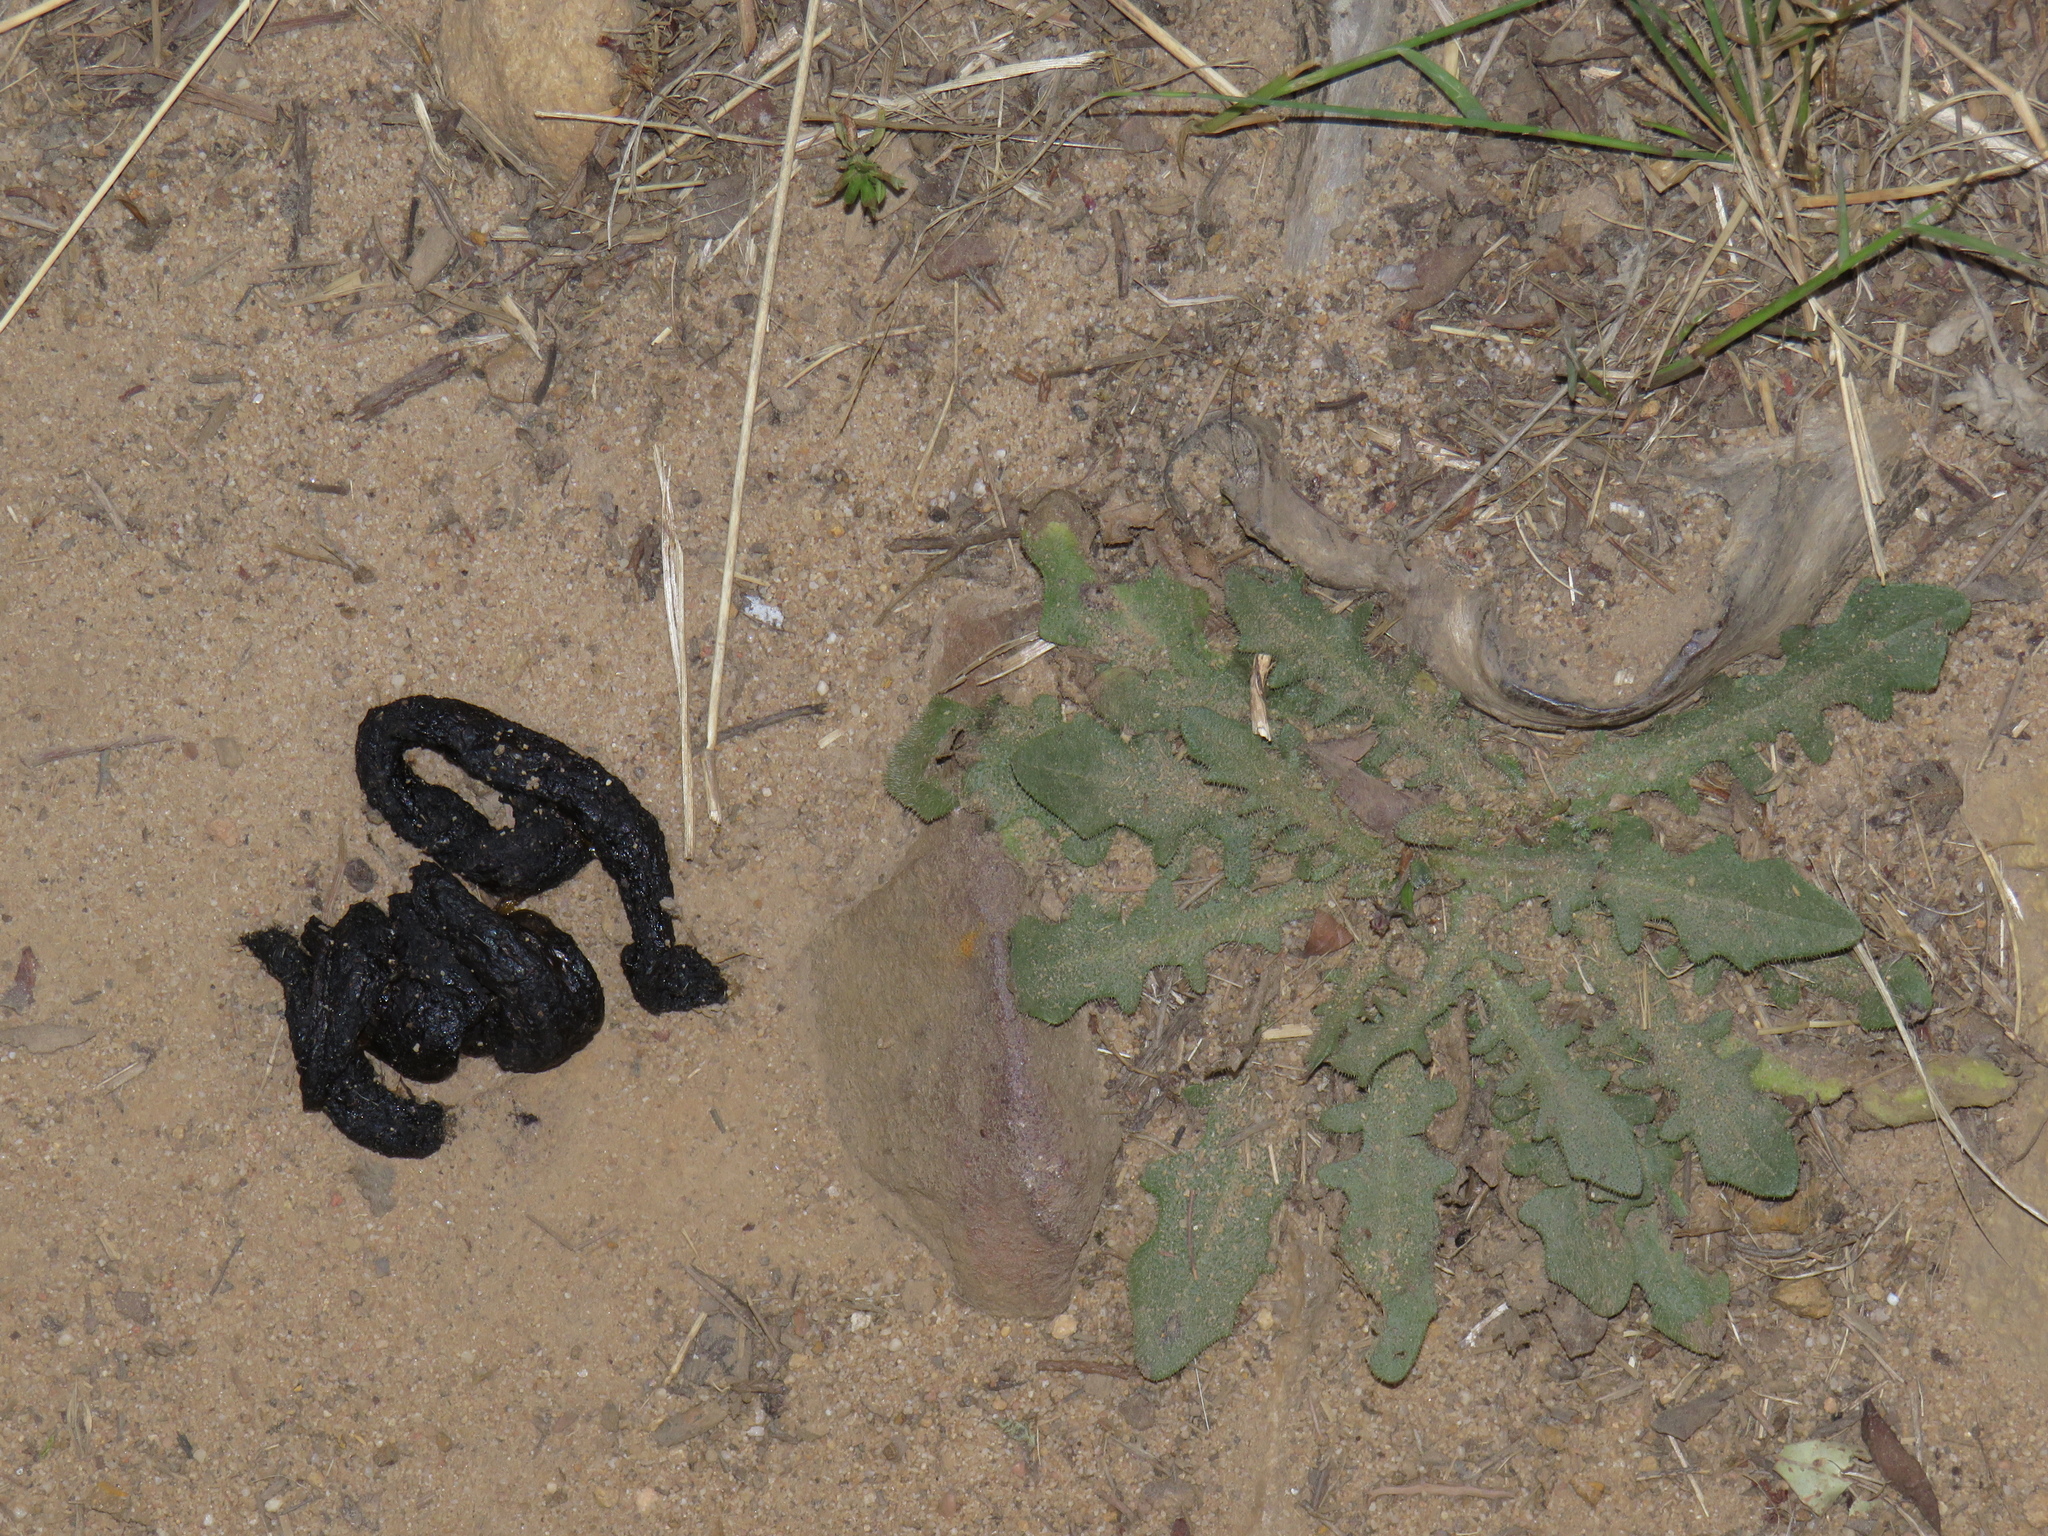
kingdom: Animalia
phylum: Chordata
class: Mammalia
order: Carnivora
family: Mustelidae
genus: Ictonyx
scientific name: Ictonyx striatus
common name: Striped polecat
